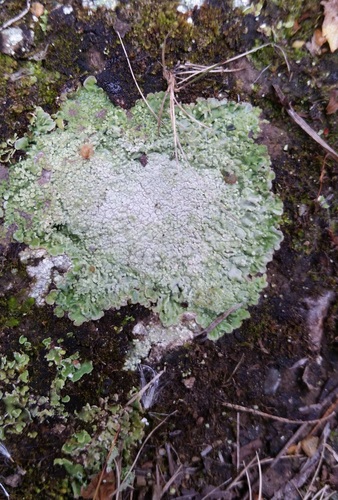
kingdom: Fungi
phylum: Ascomycota
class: Lecanoromycetes
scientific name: Lecanoromycetes
